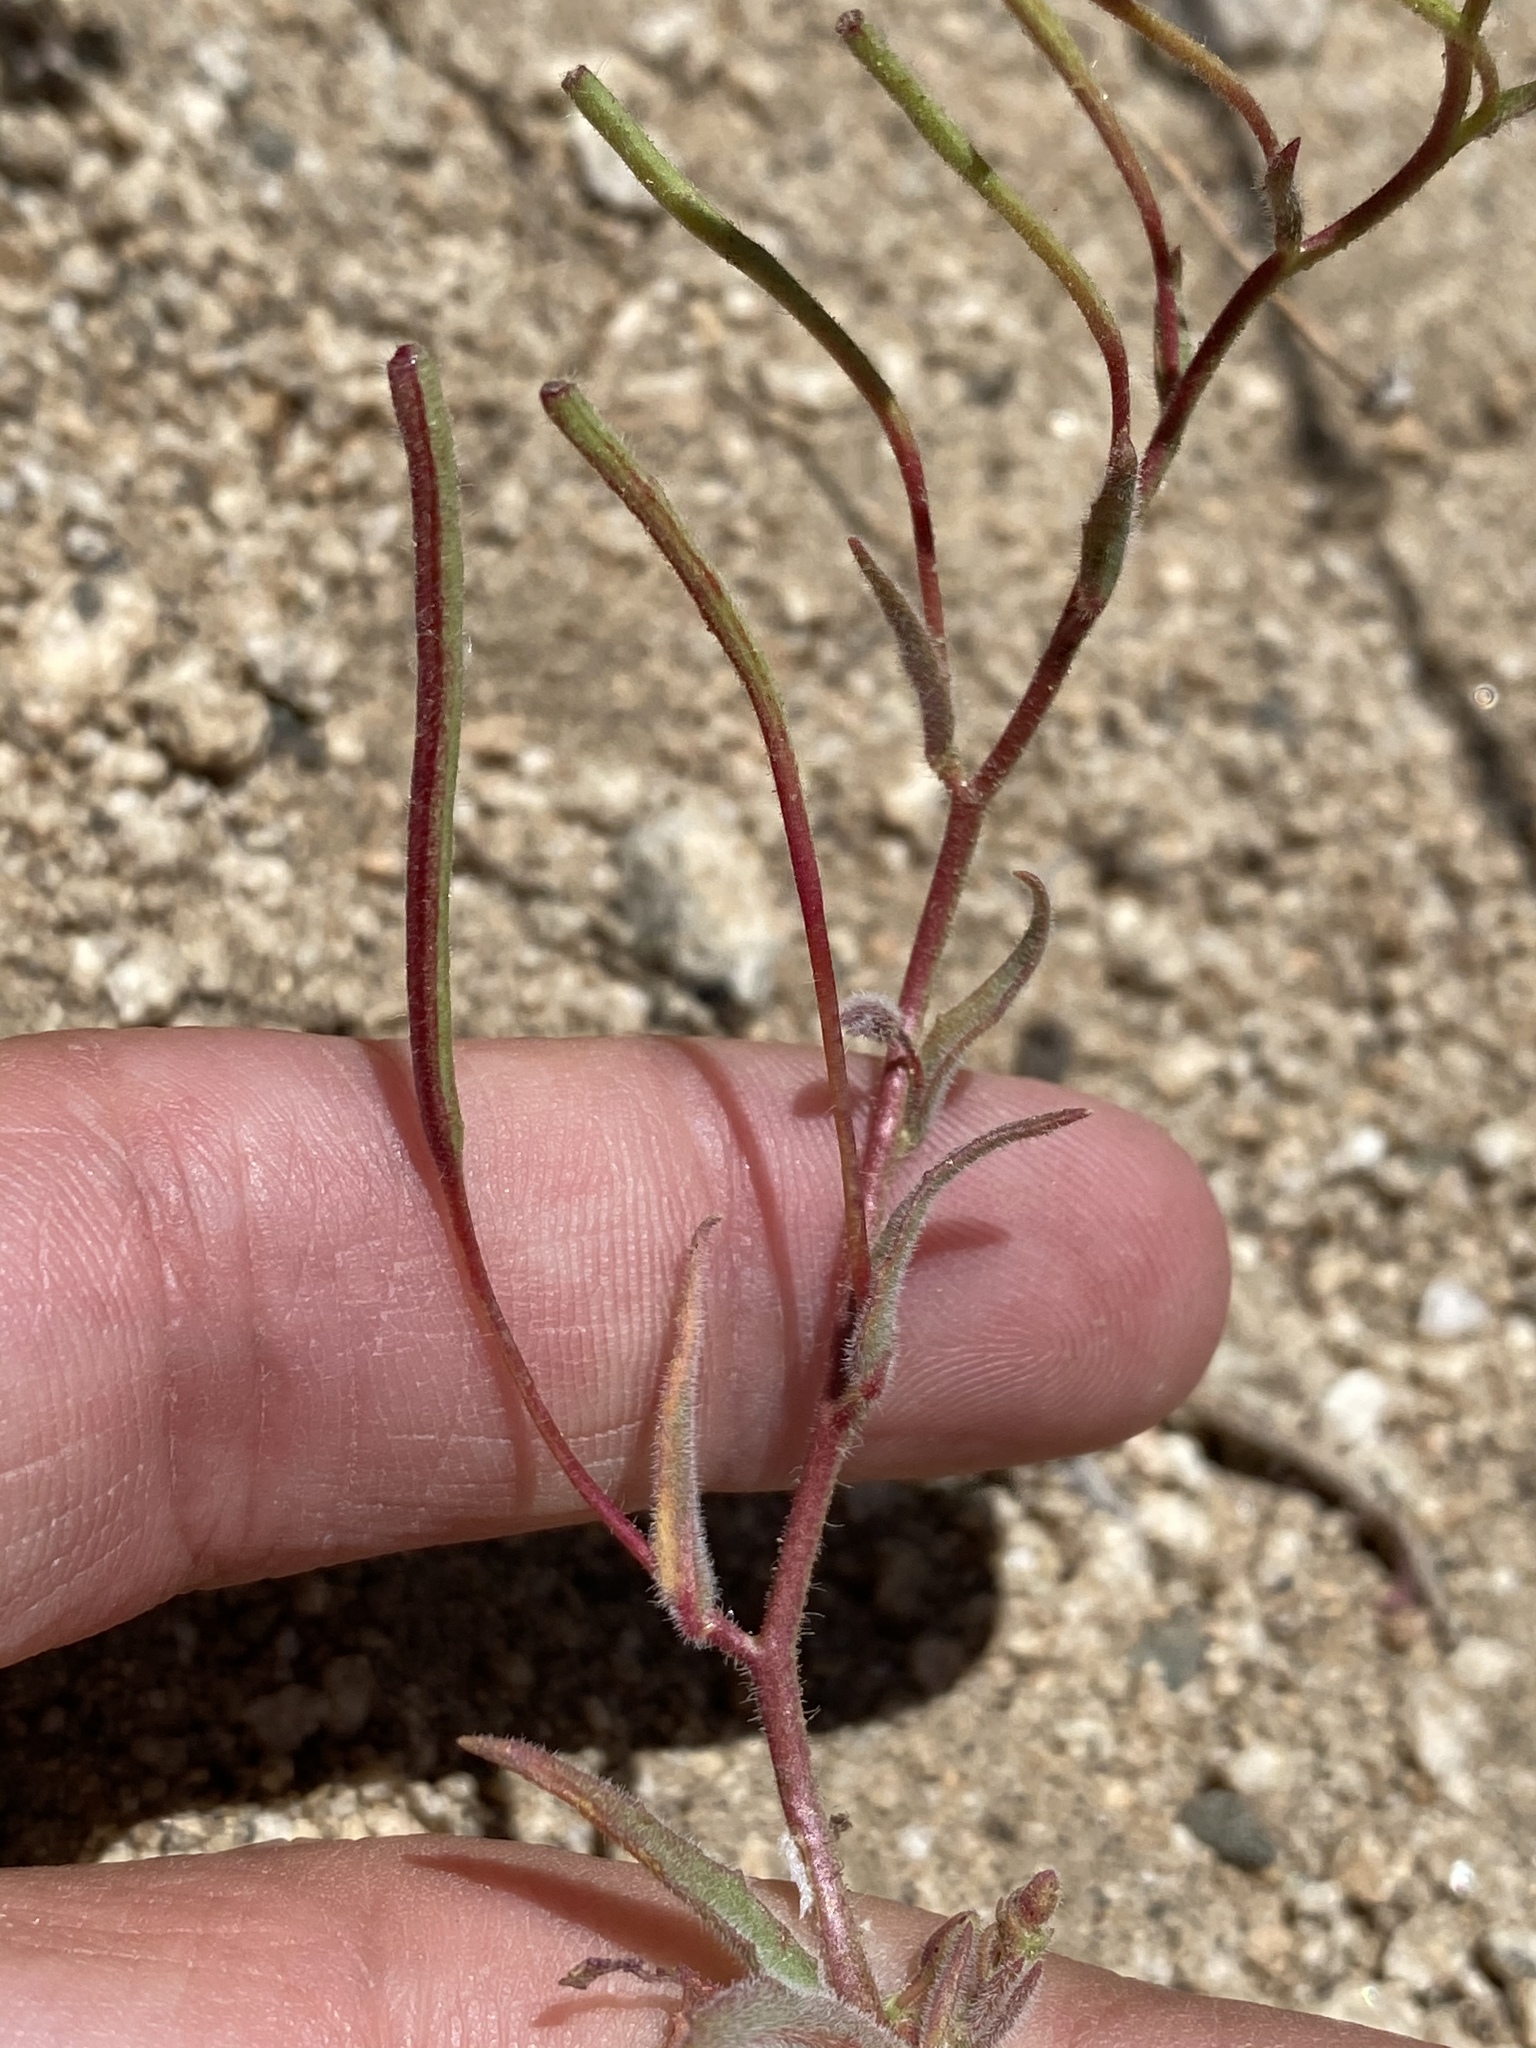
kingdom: Plantae
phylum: Tracheophyta
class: Magnoliopsida
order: Myrtales
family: Onagraceae
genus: Camissonia
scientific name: Camissonia kernensis
